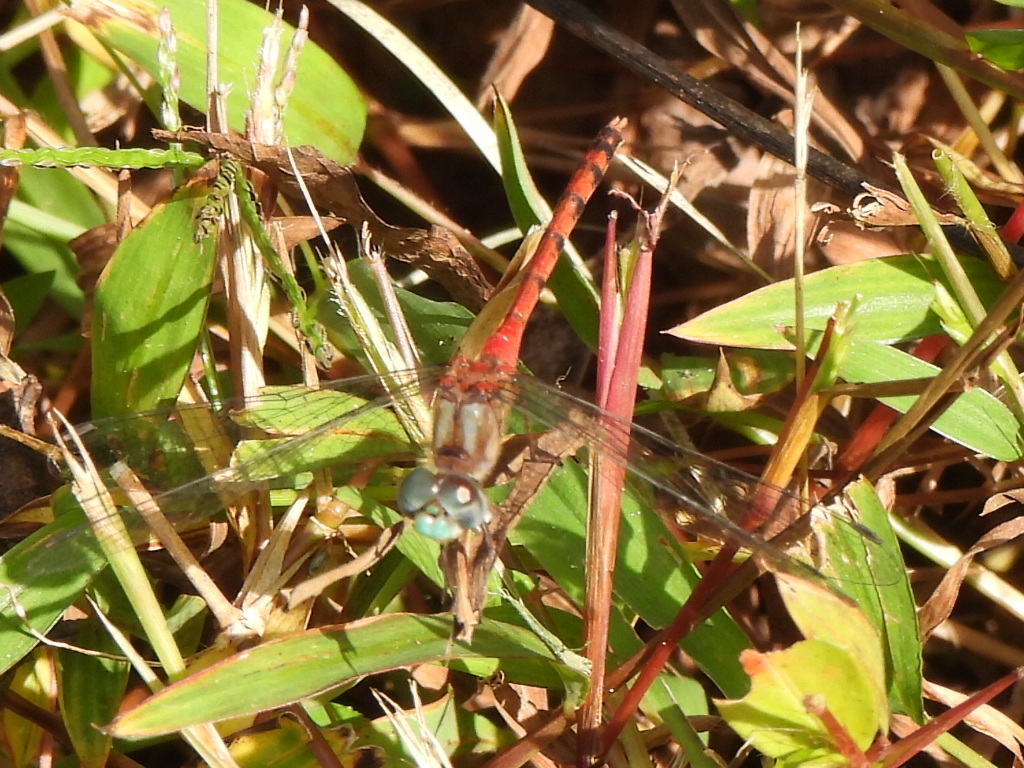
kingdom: Animalia
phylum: Arthropoda
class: Insecta
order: Odonata
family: Libellulidae
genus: Sympetrum
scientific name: Sympetrum ambiguum
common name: Blue-faced meadowhawk
